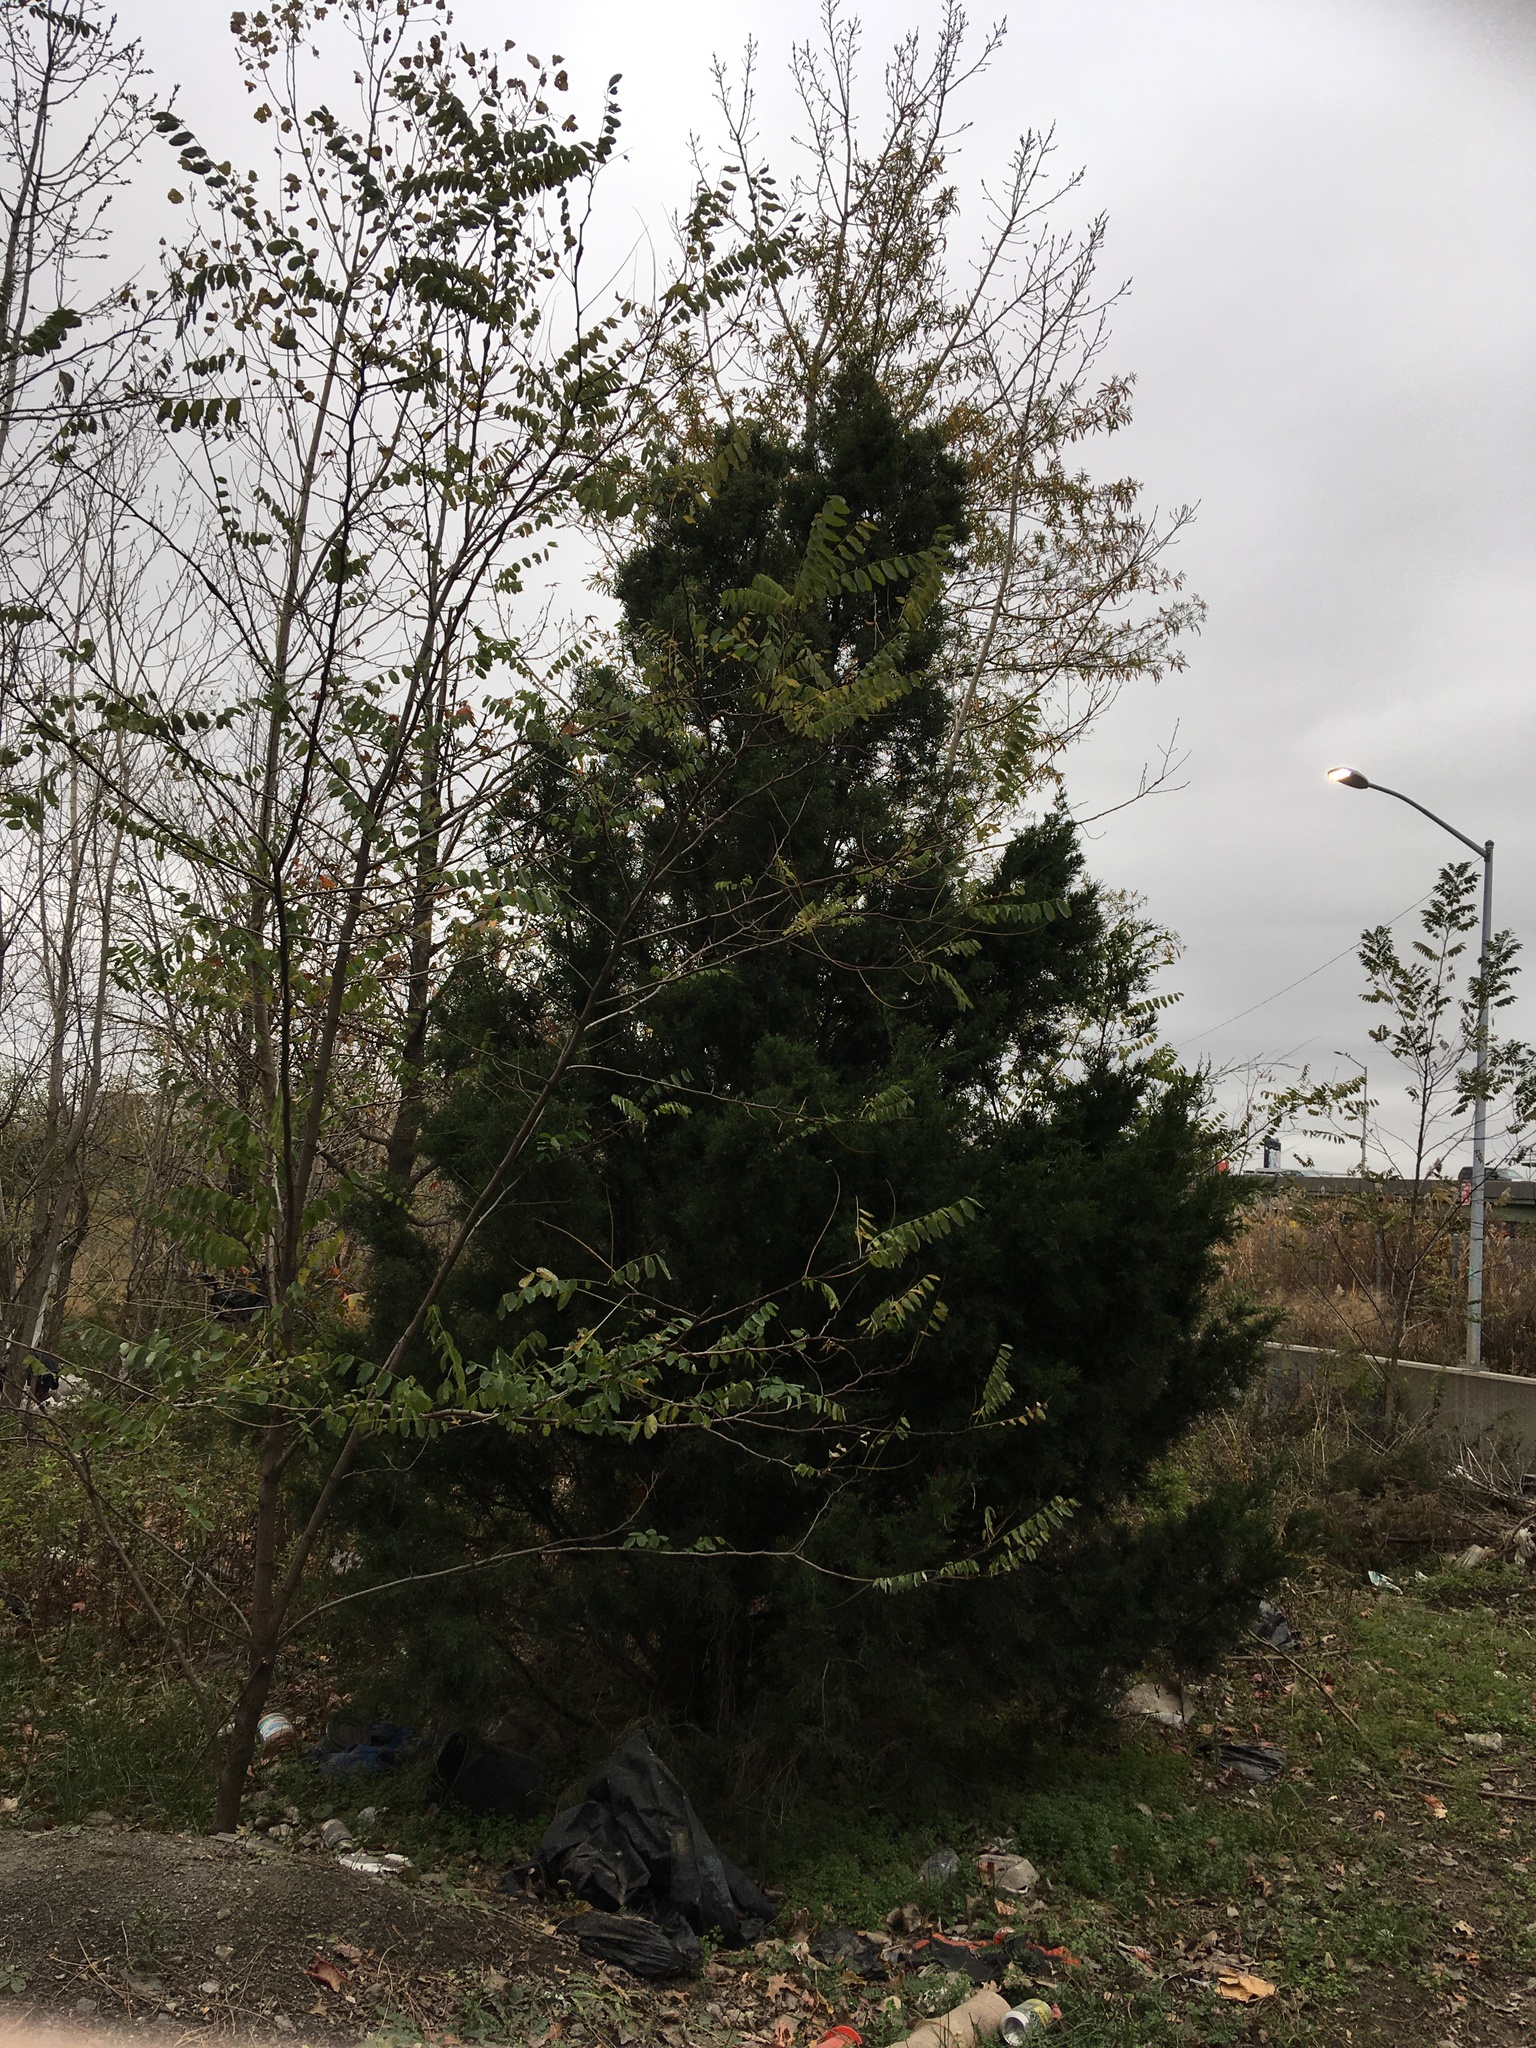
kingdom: Plantae
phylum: Tracheophyta
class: Pinopsida
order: Pinales
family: Cupressaceae
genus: Juniperus
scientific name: Juniperus virginiana
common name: Red juniper
